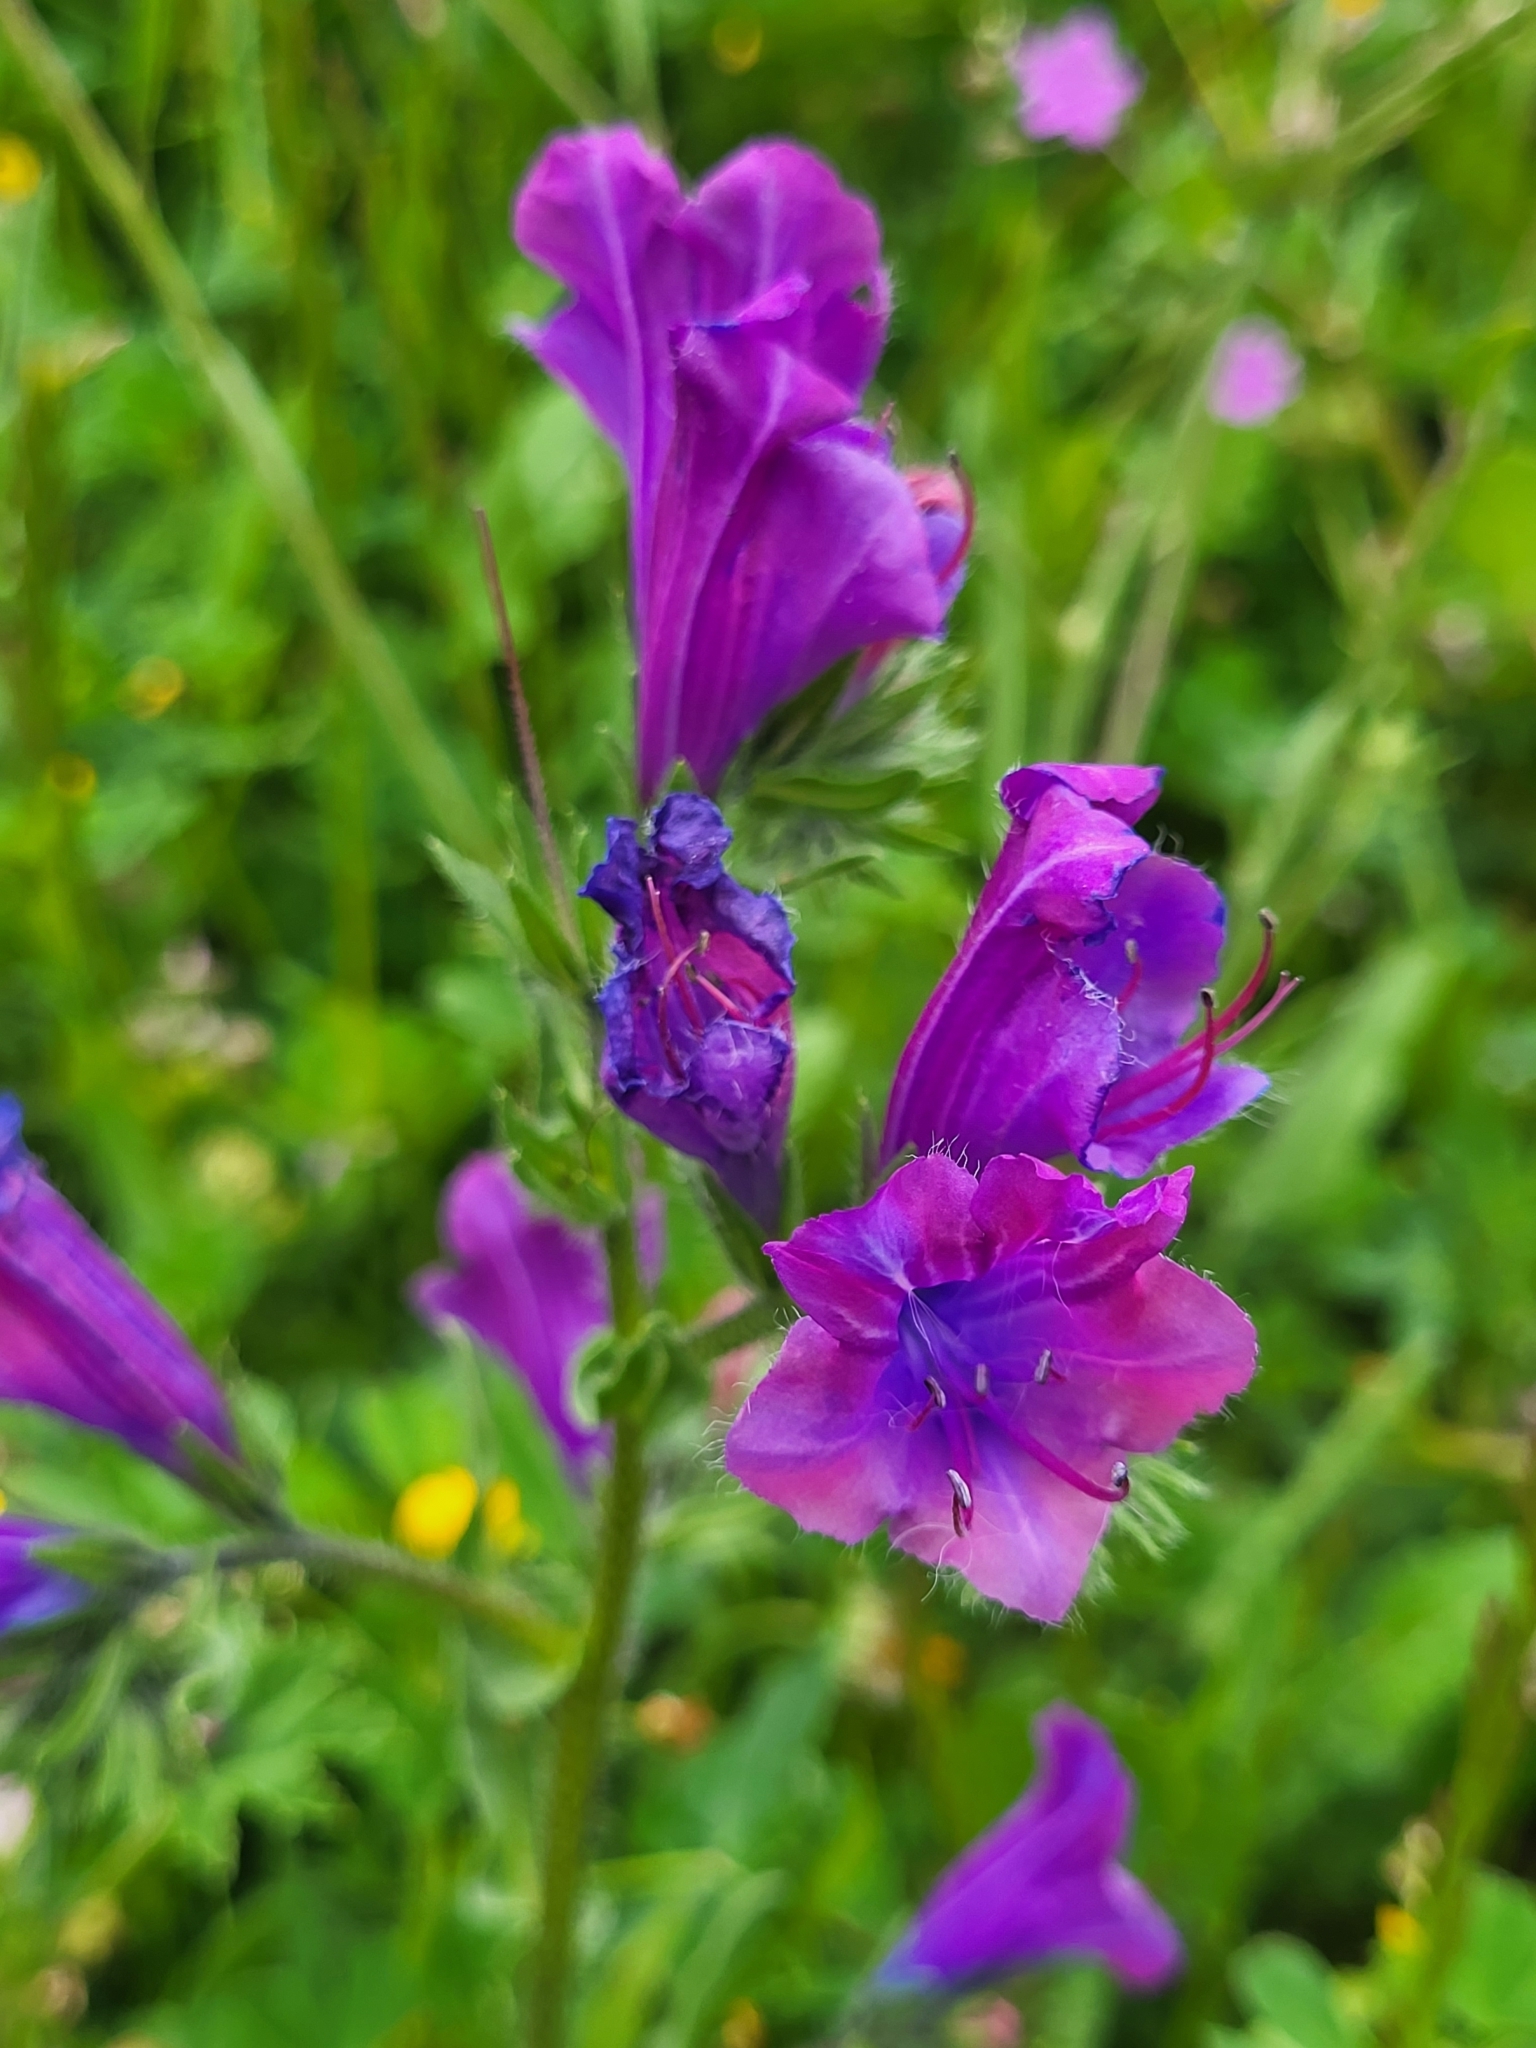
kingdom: Plantae
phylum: Tracheophyta
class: Magnoliopsida
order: Boraginales
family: Boraginaceae
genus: Echium
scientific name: Echium plantagineum
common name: Purple viper's-bugloss
